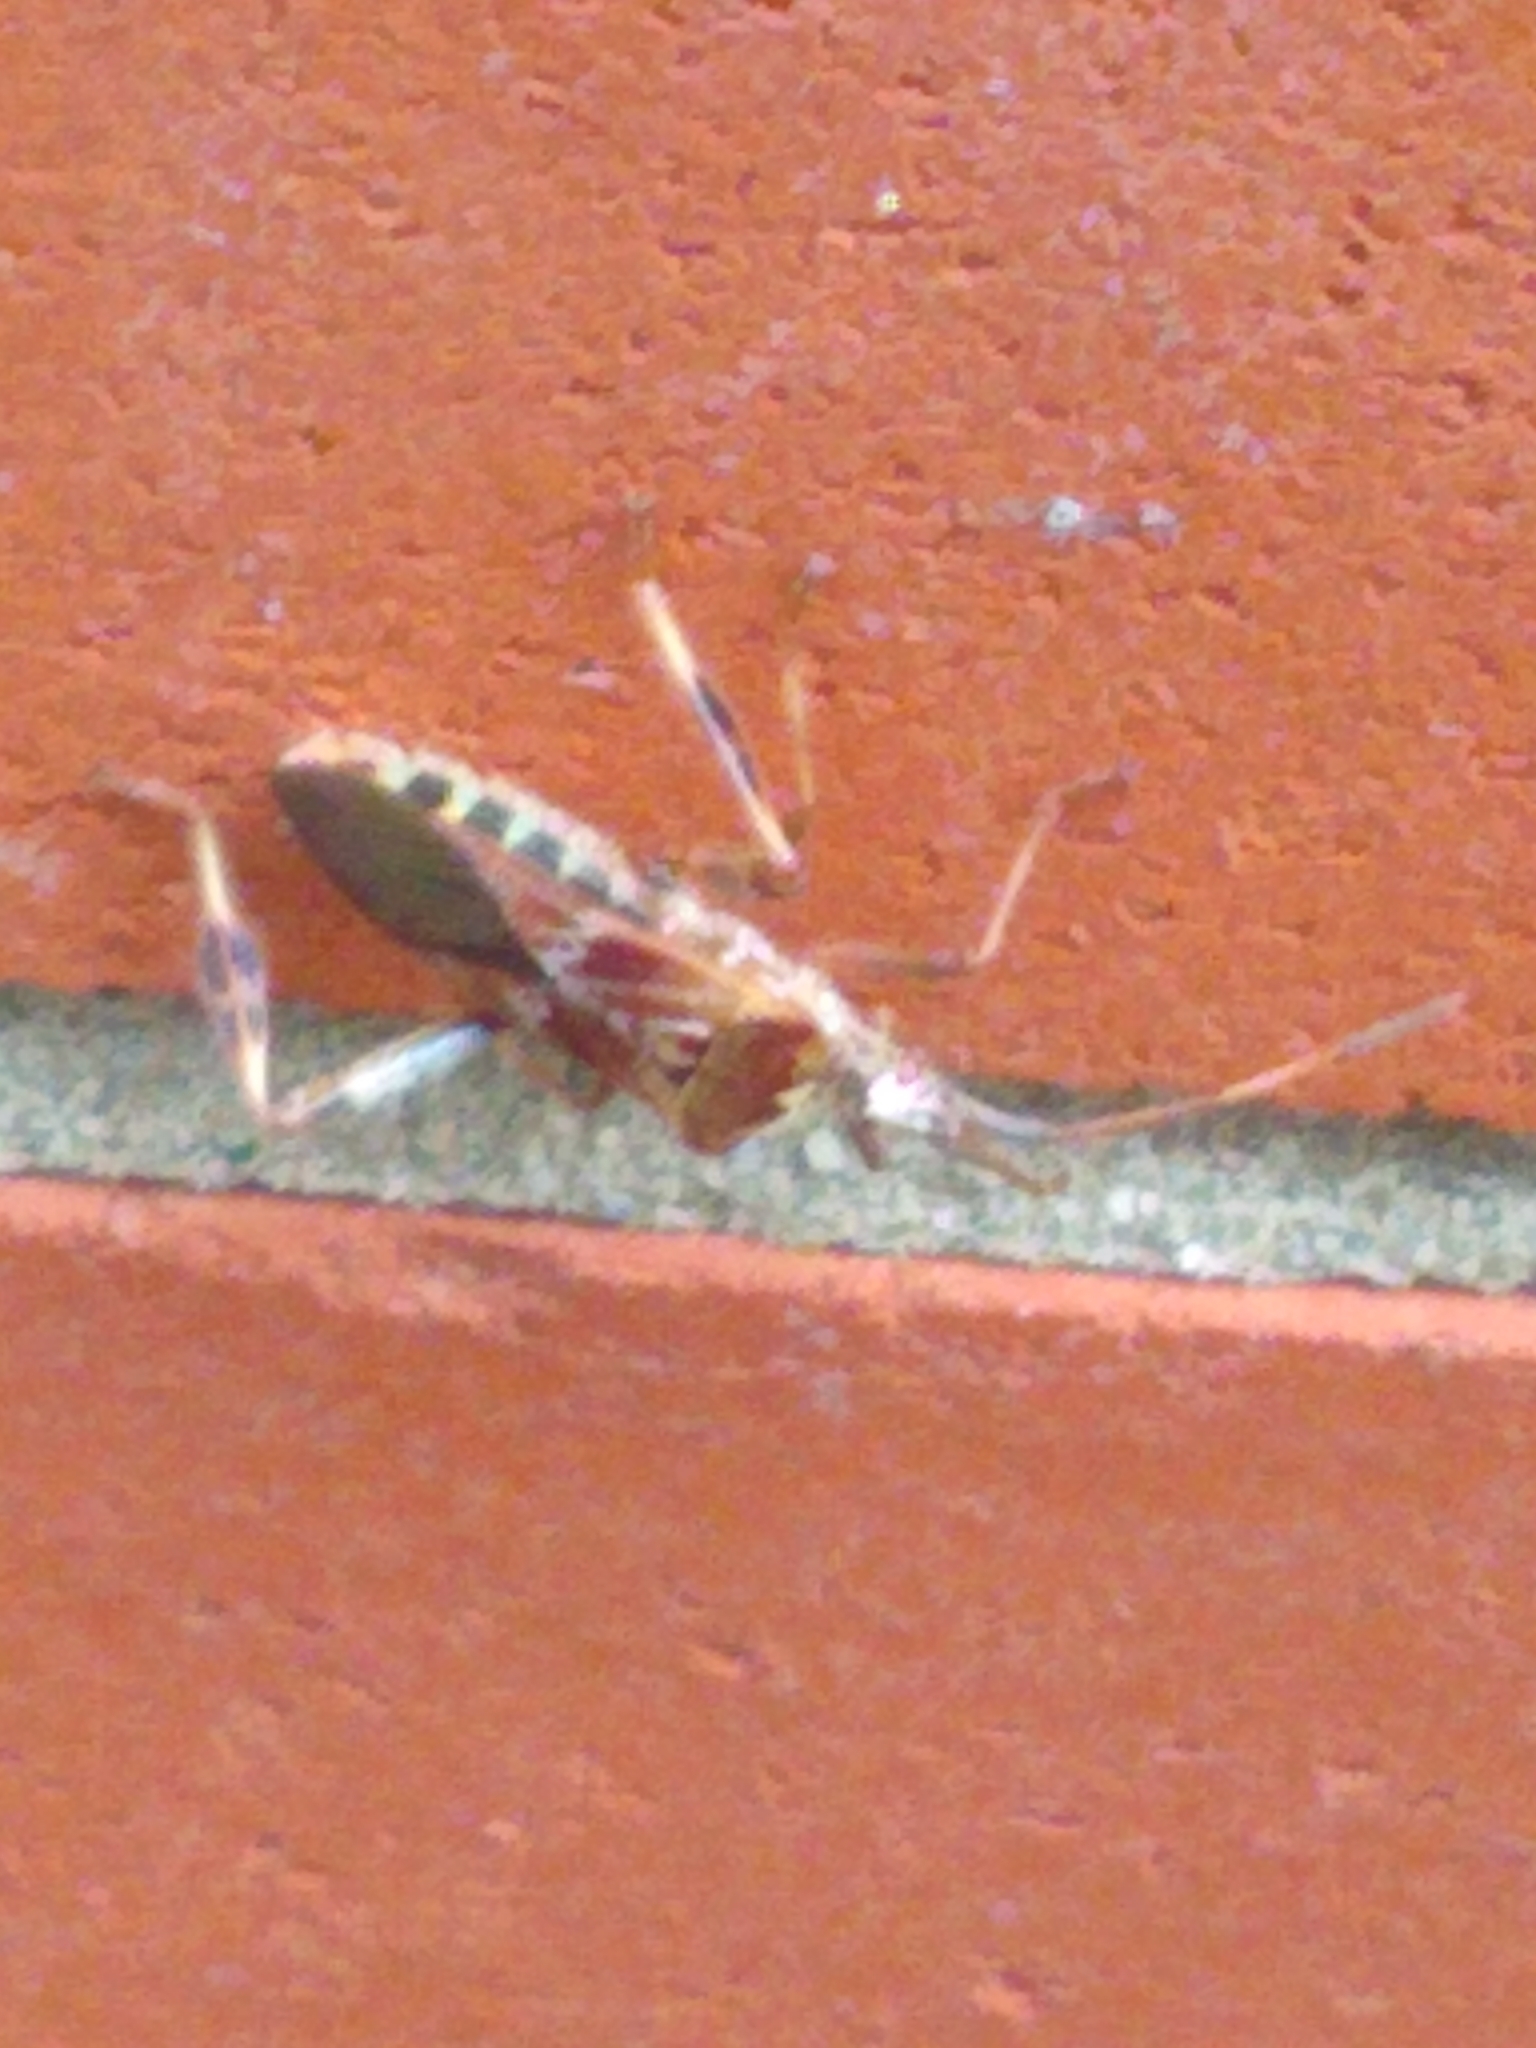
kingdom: Animalia
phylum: Arthropoda
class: Insecta
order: Hemiptera
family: Coreidae
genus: Leptoglossus
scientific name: Leptoglossus occidentalis
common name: Western conifer-seed bug
